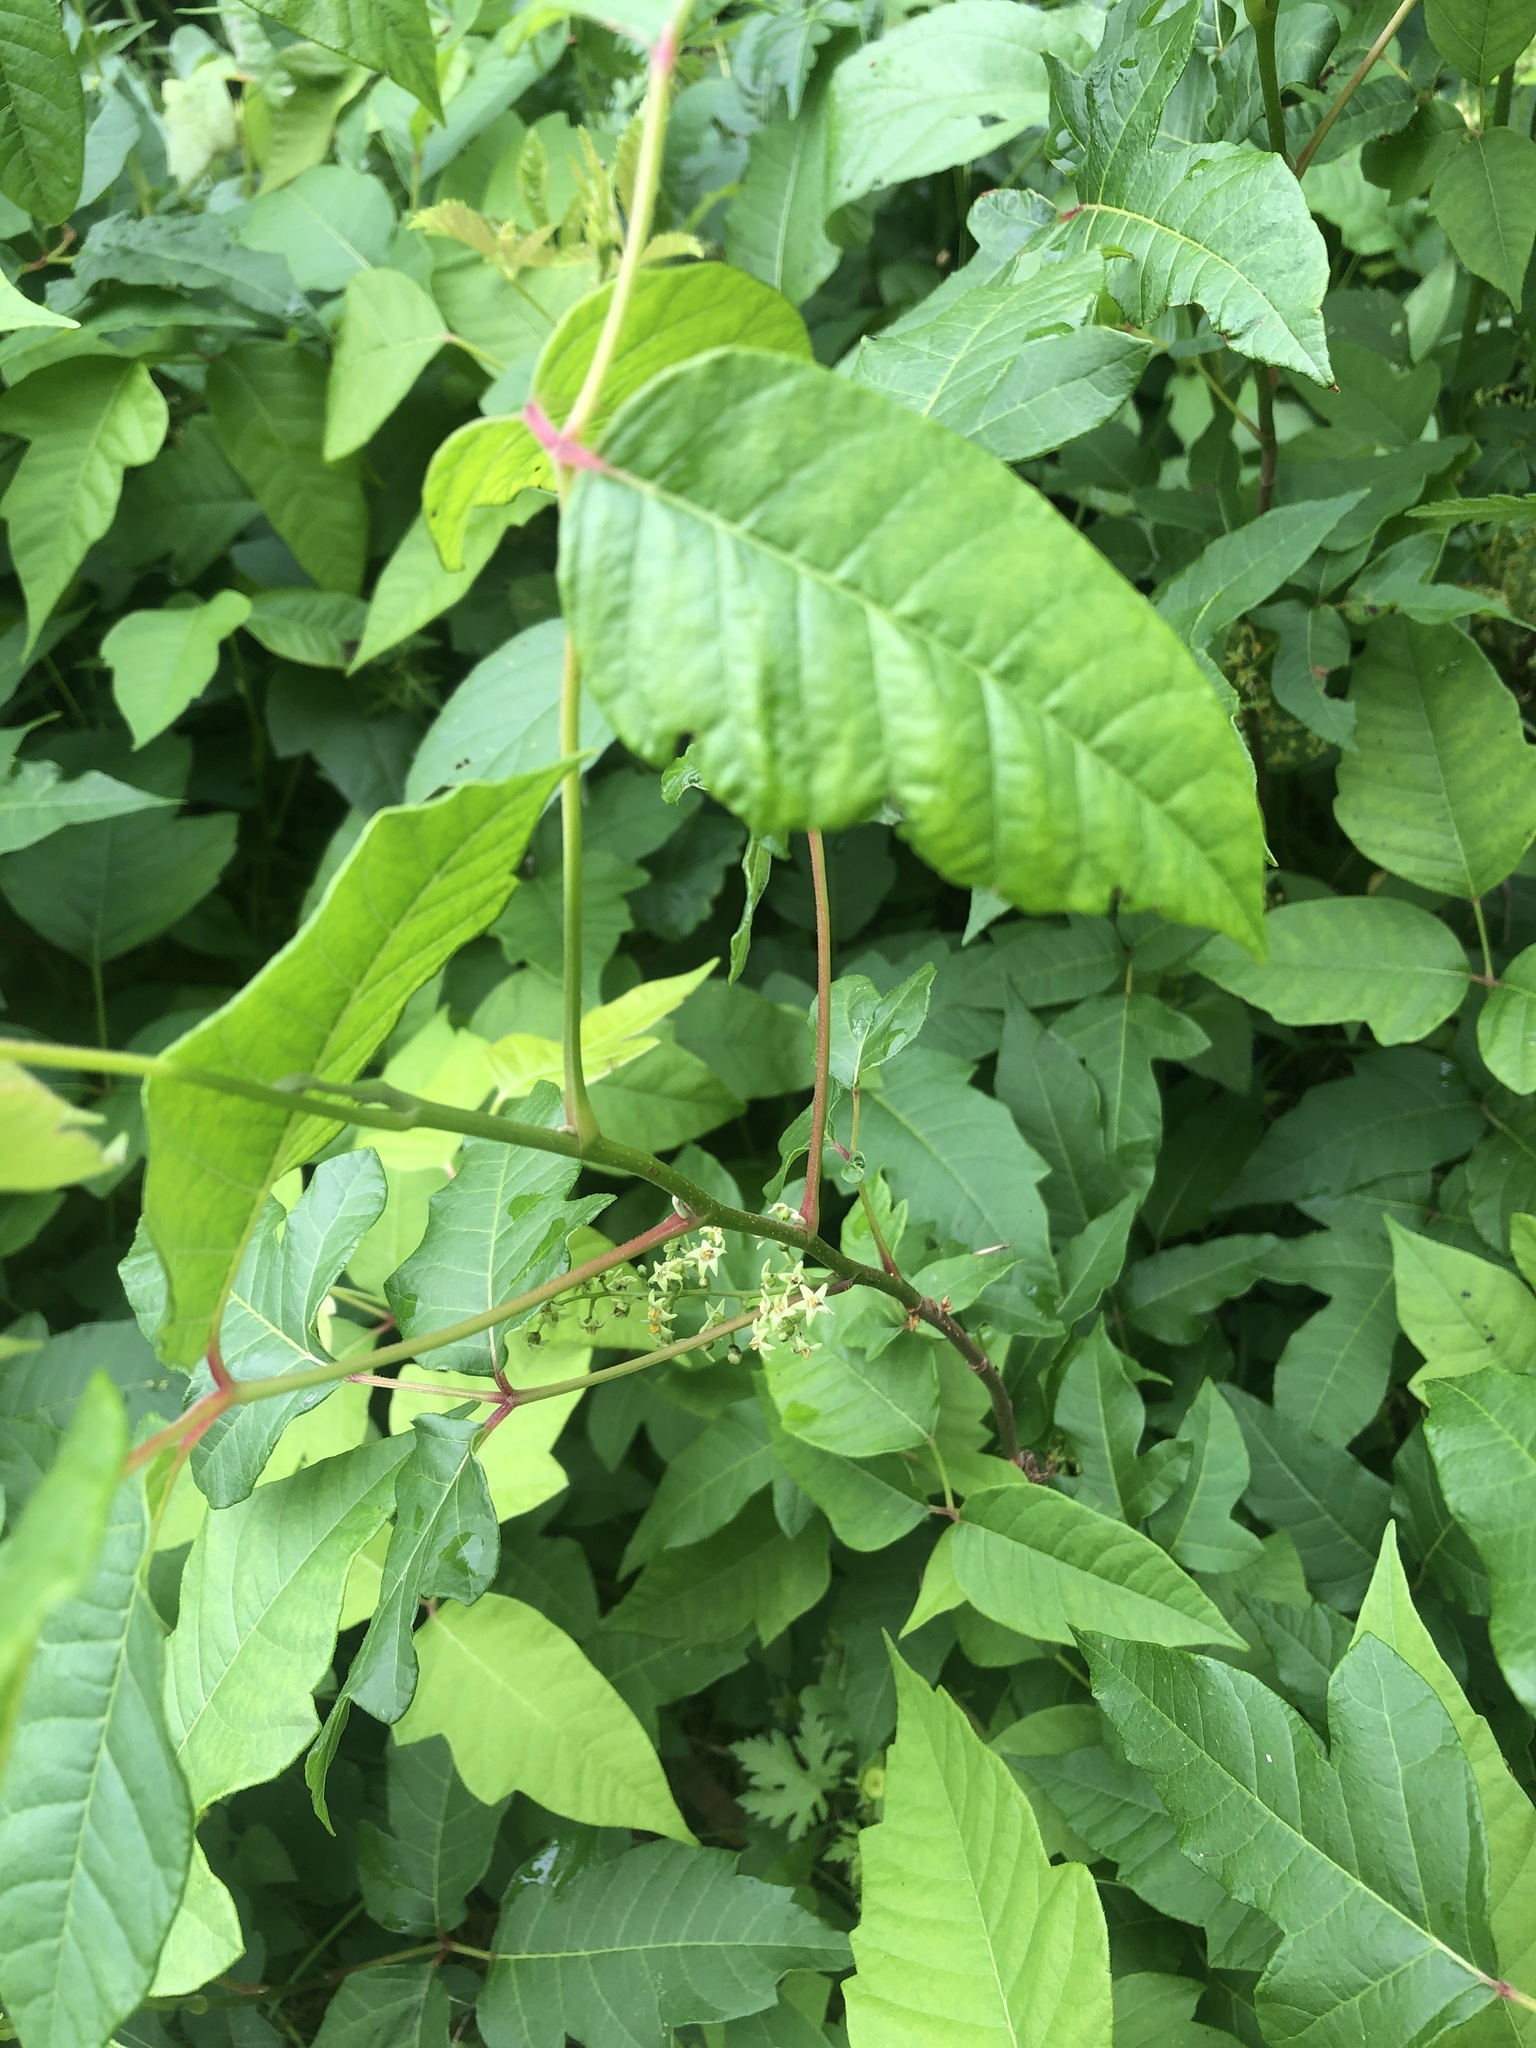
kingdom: Plantae
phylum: Tracheophyta
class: Magnoliopsida
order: Sapindales
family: Anacardiaceae
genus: Toxicodendron
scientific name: Toxicodendron radicans
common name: Poison ivy
